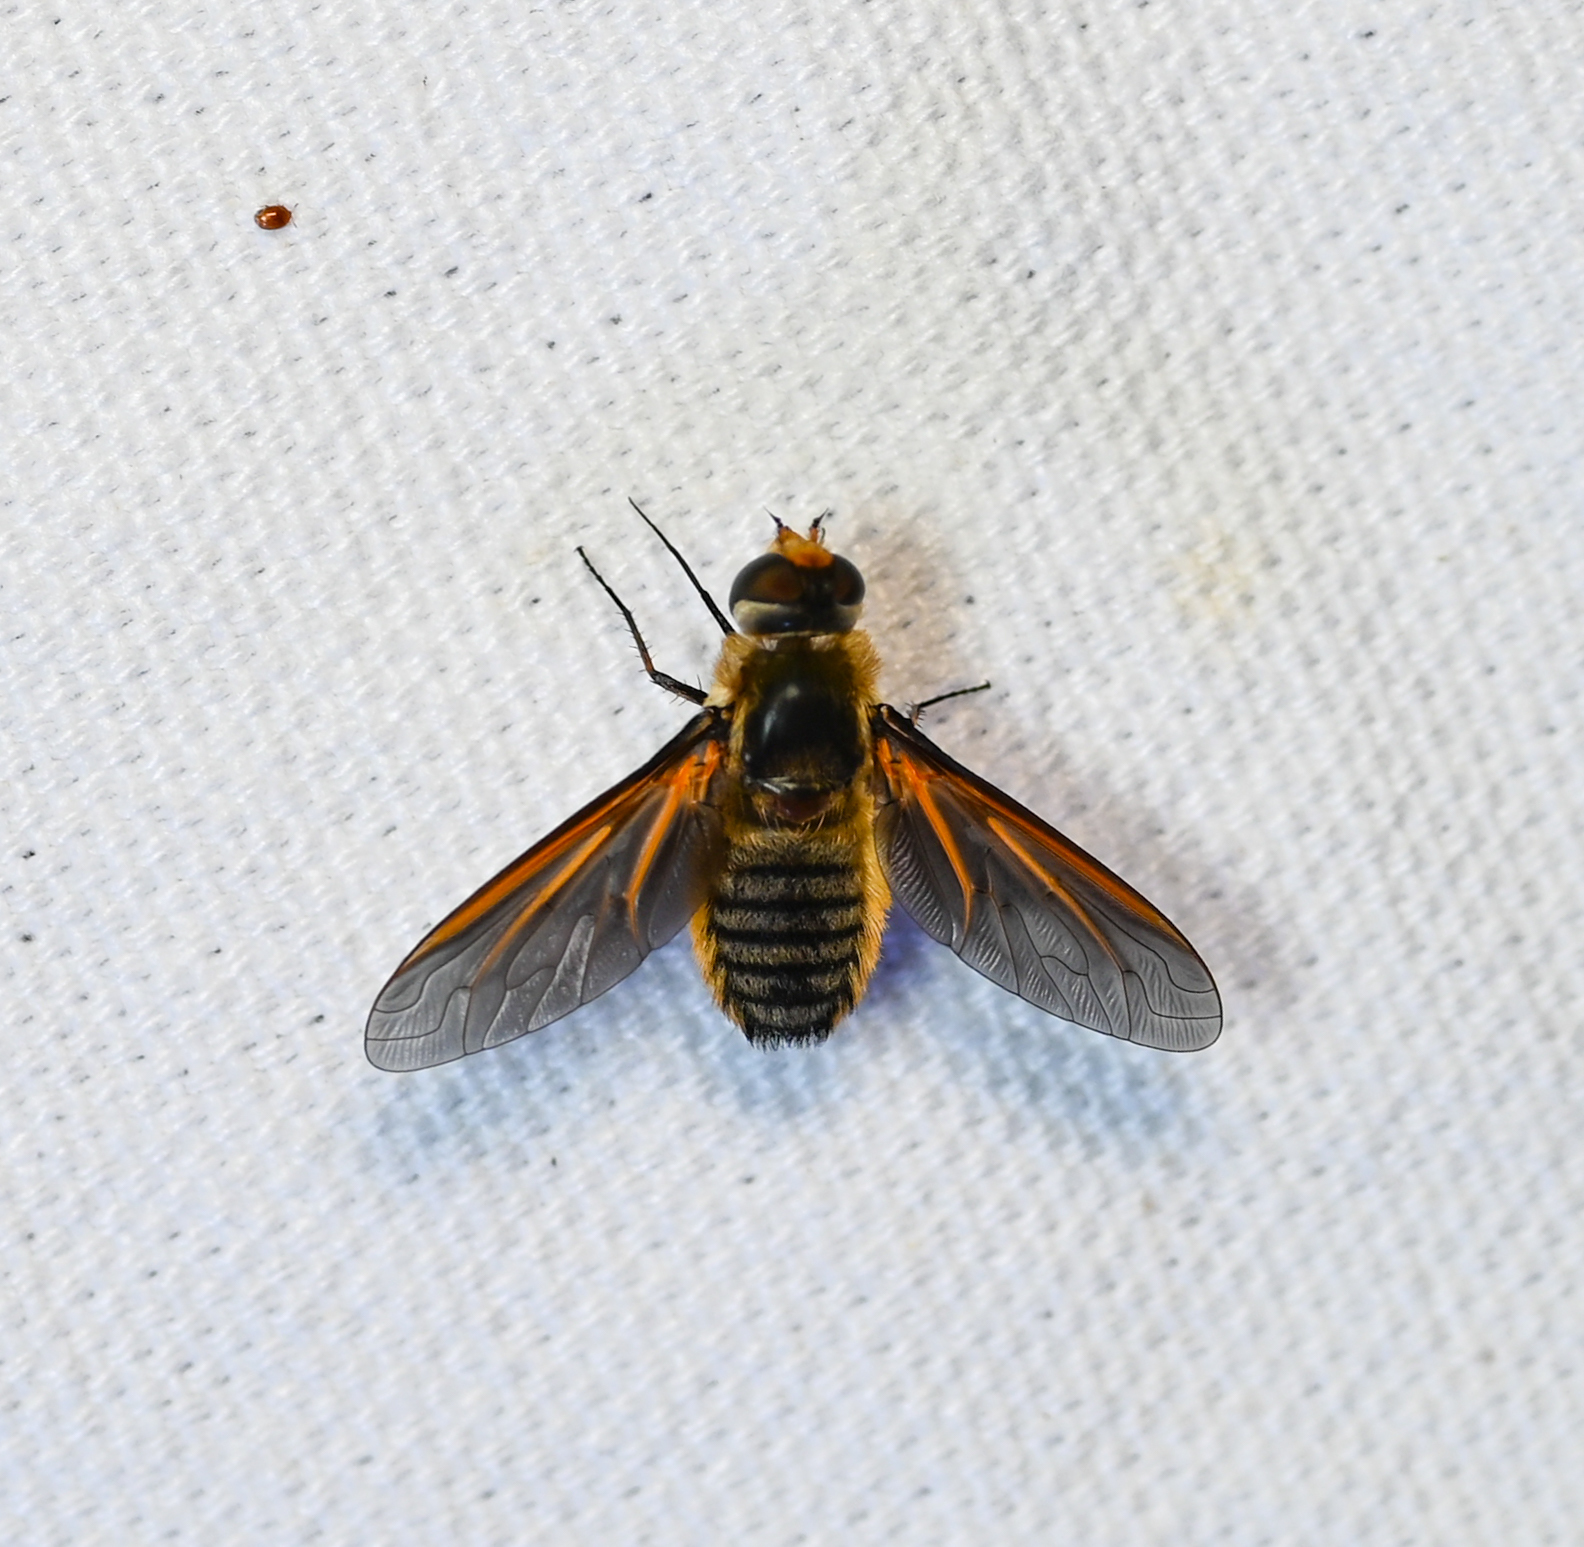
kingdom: Animalia
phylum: Arthropoda
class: Insecta
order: Diptera
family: Bombyliidae
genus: Poecilanthrax
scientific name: Poecilanthrax lucifer
